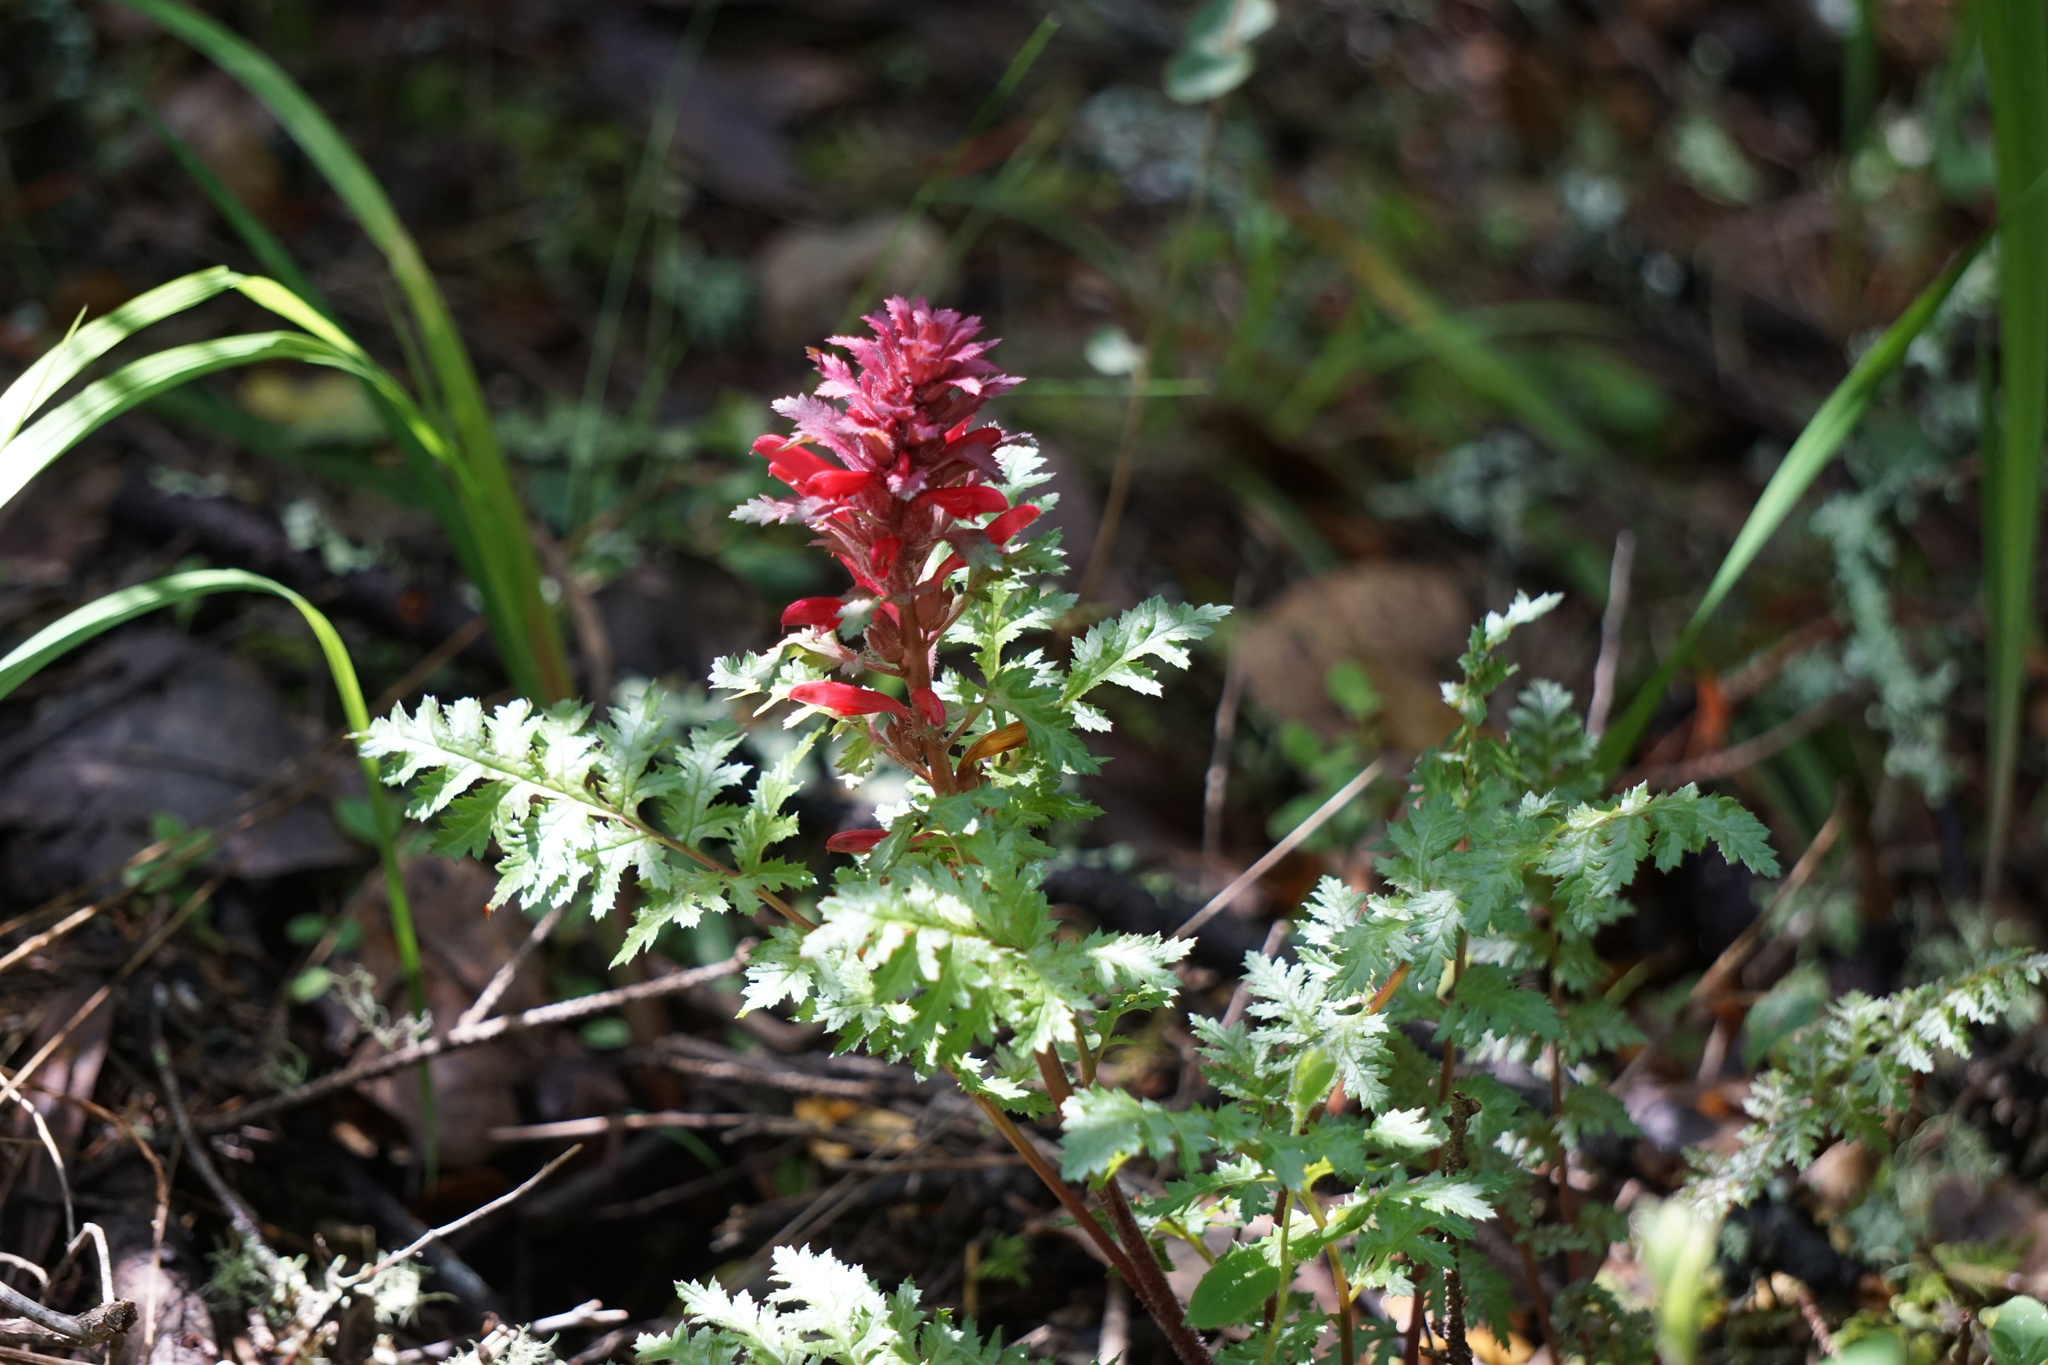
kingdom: Plantae
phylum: Tracheophyta
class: Magnoliopsida
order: Lamiales
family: Orobanchaceae
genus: Pedicularis
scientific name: Pedicularis densiflora
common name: Indian warrior
